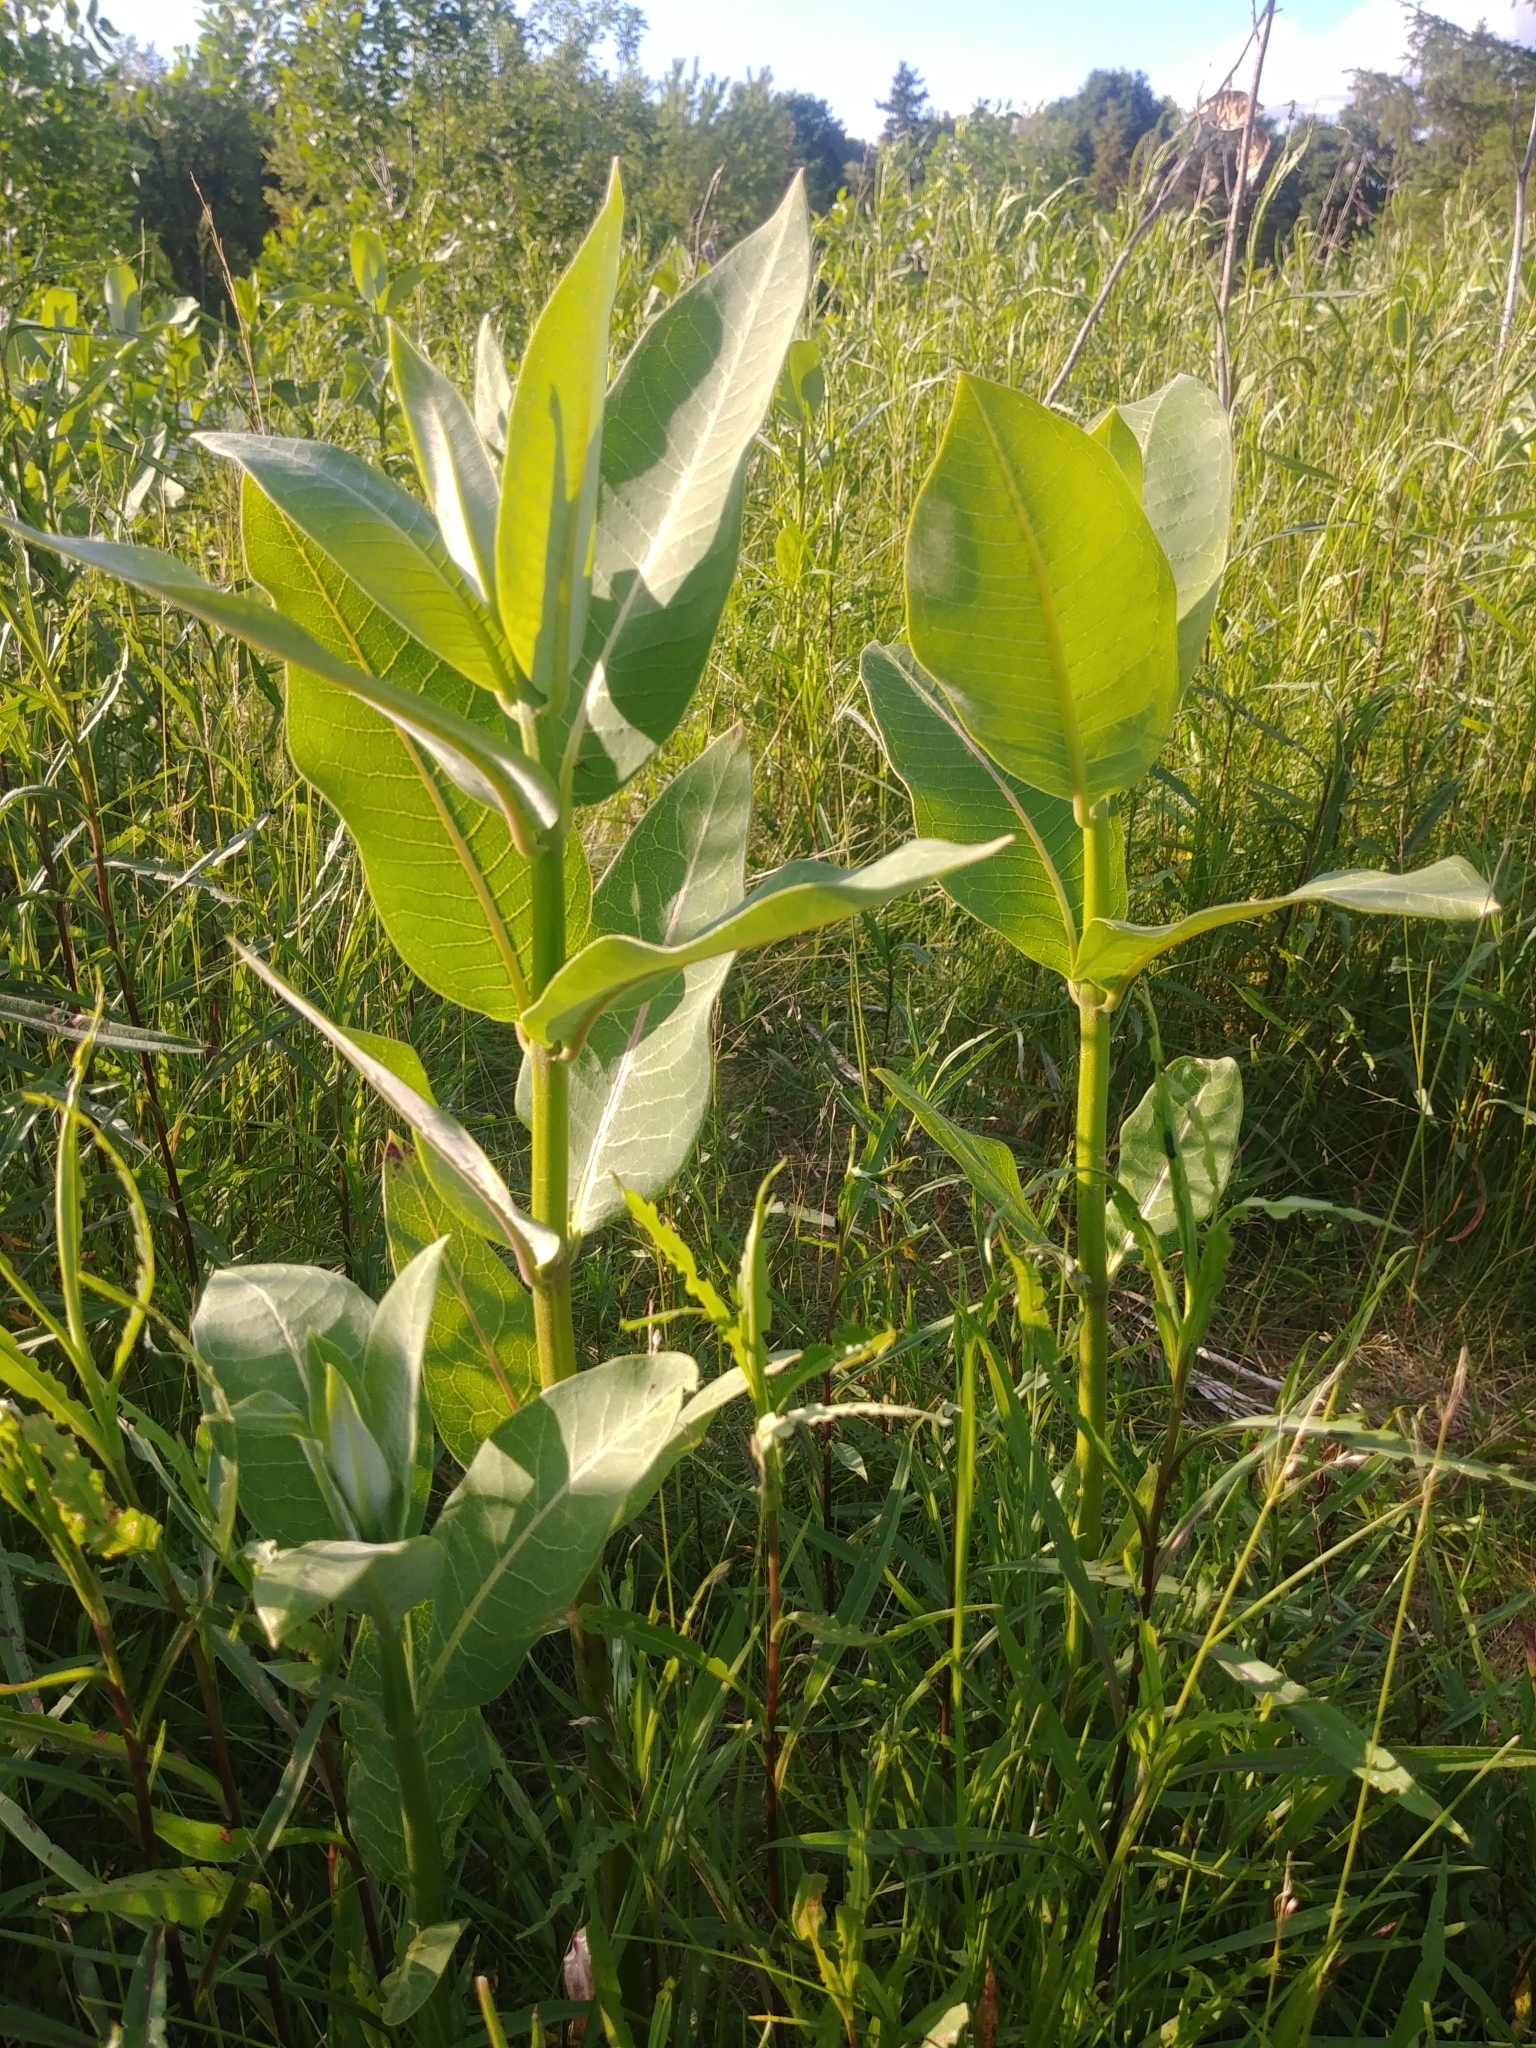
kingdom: Plantae
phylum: Tracheophyta
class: Magnoliopsida
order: Gentianales
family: Apocynaceae
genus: Asclepias
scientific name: Asclepias syriaca
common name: Common milkweed
